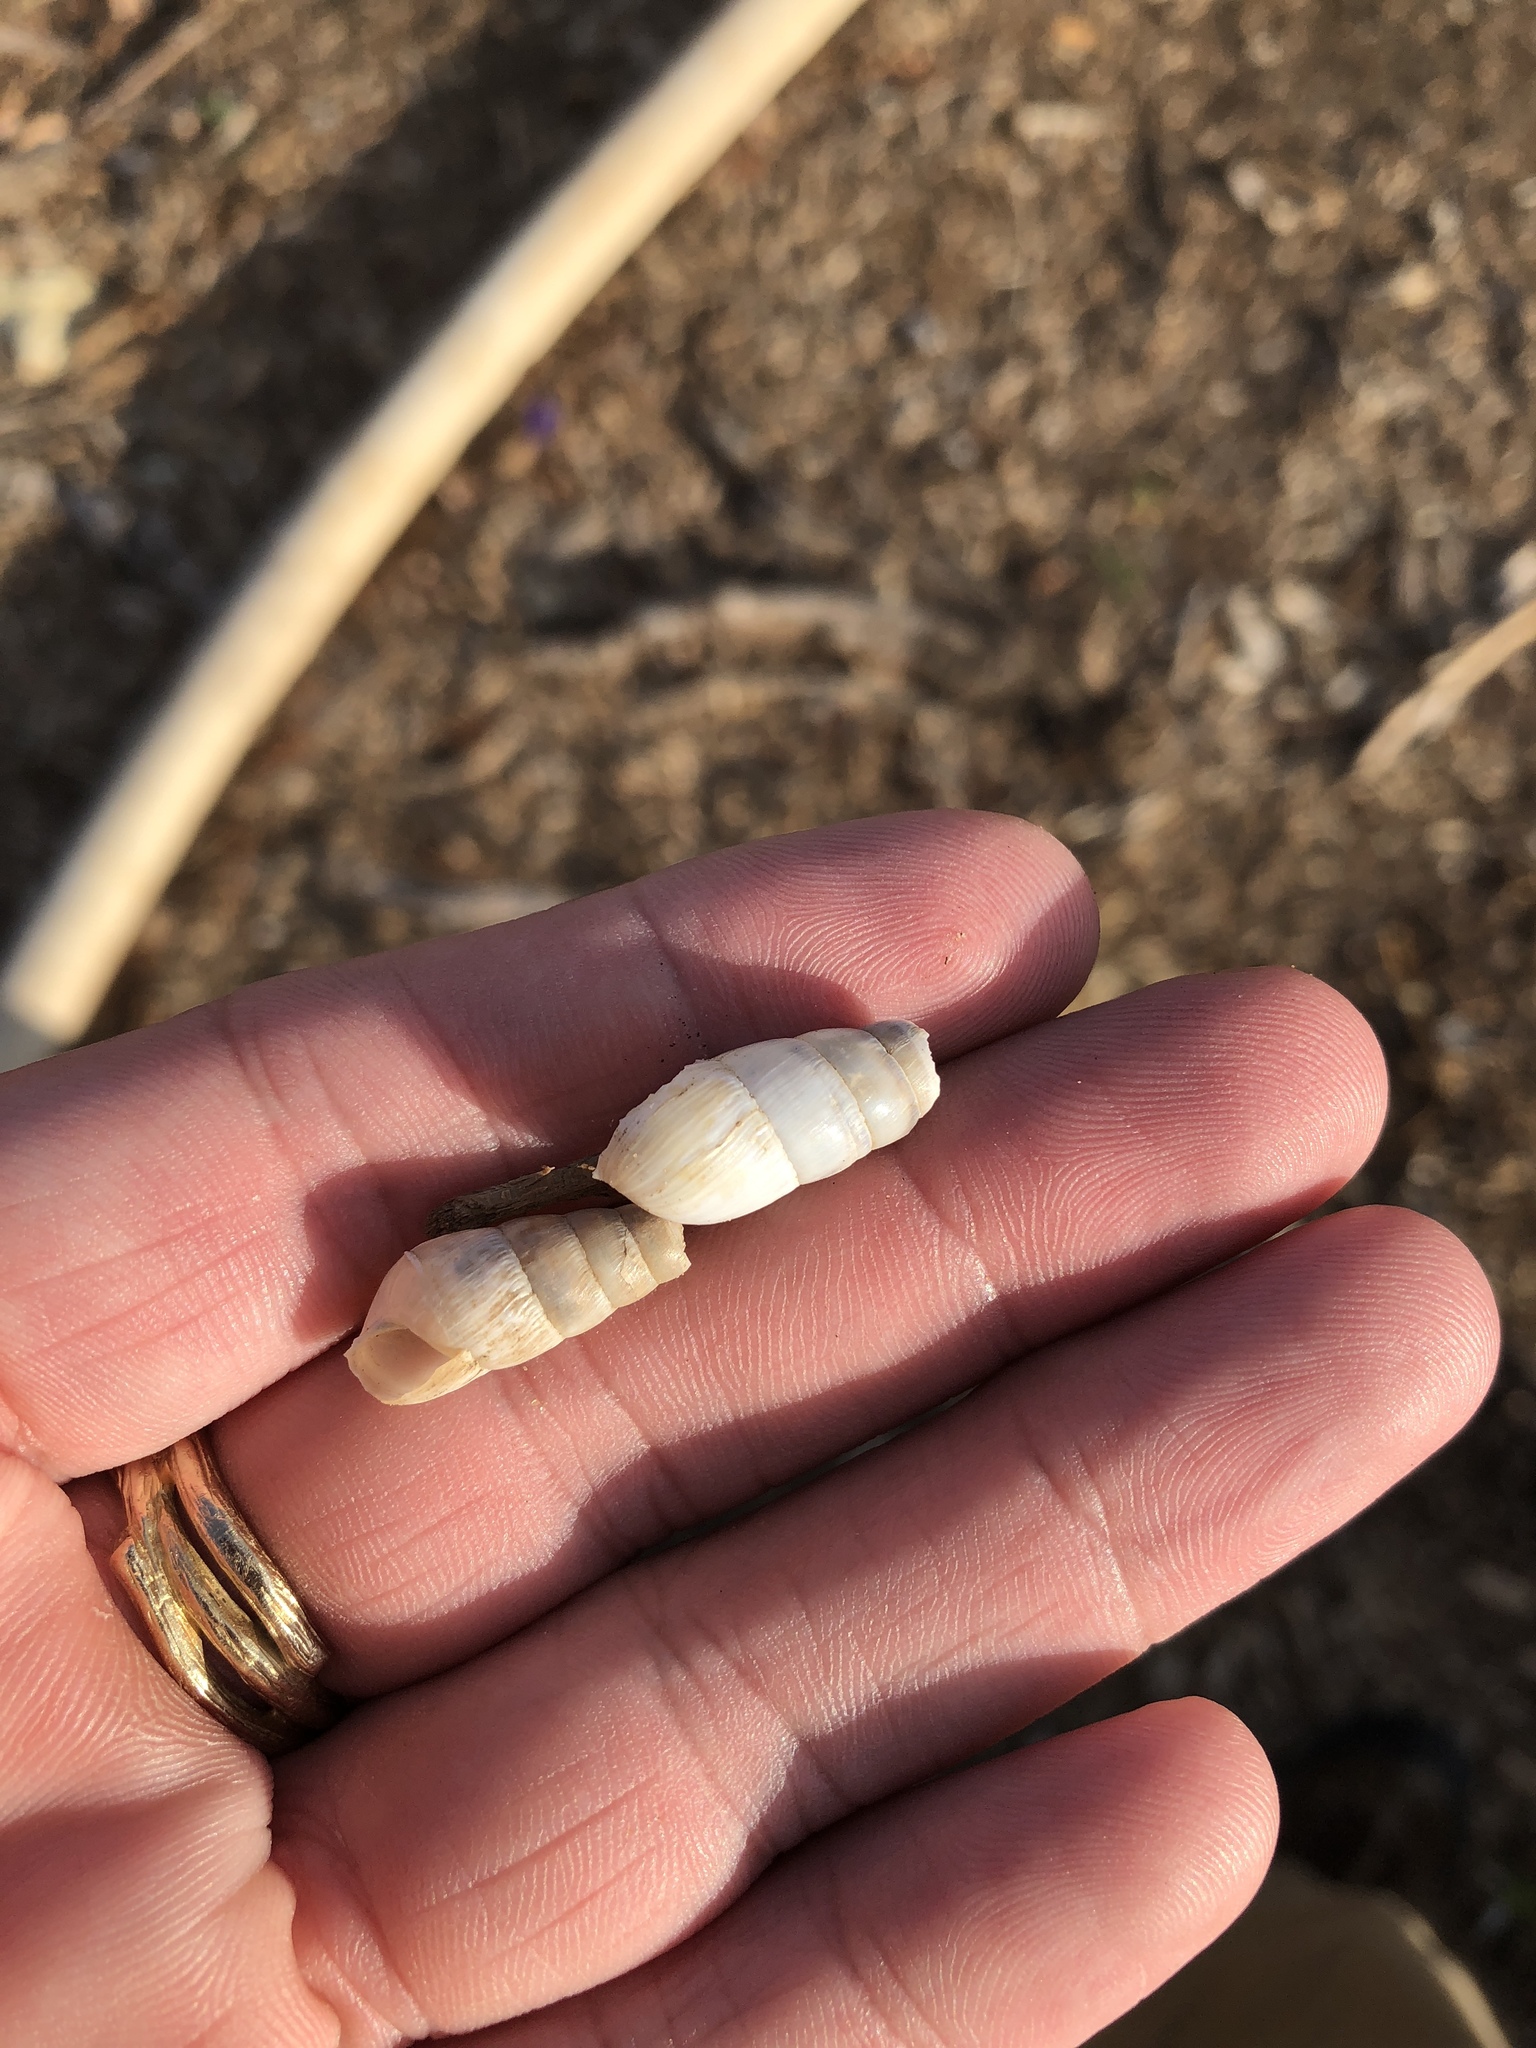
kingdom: Animalia
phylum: Mollusca
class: Gastropoda
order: Stylommatophora
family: Achatinidae
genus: Rumina
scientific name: Rumina decollata
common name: Decollate snail
